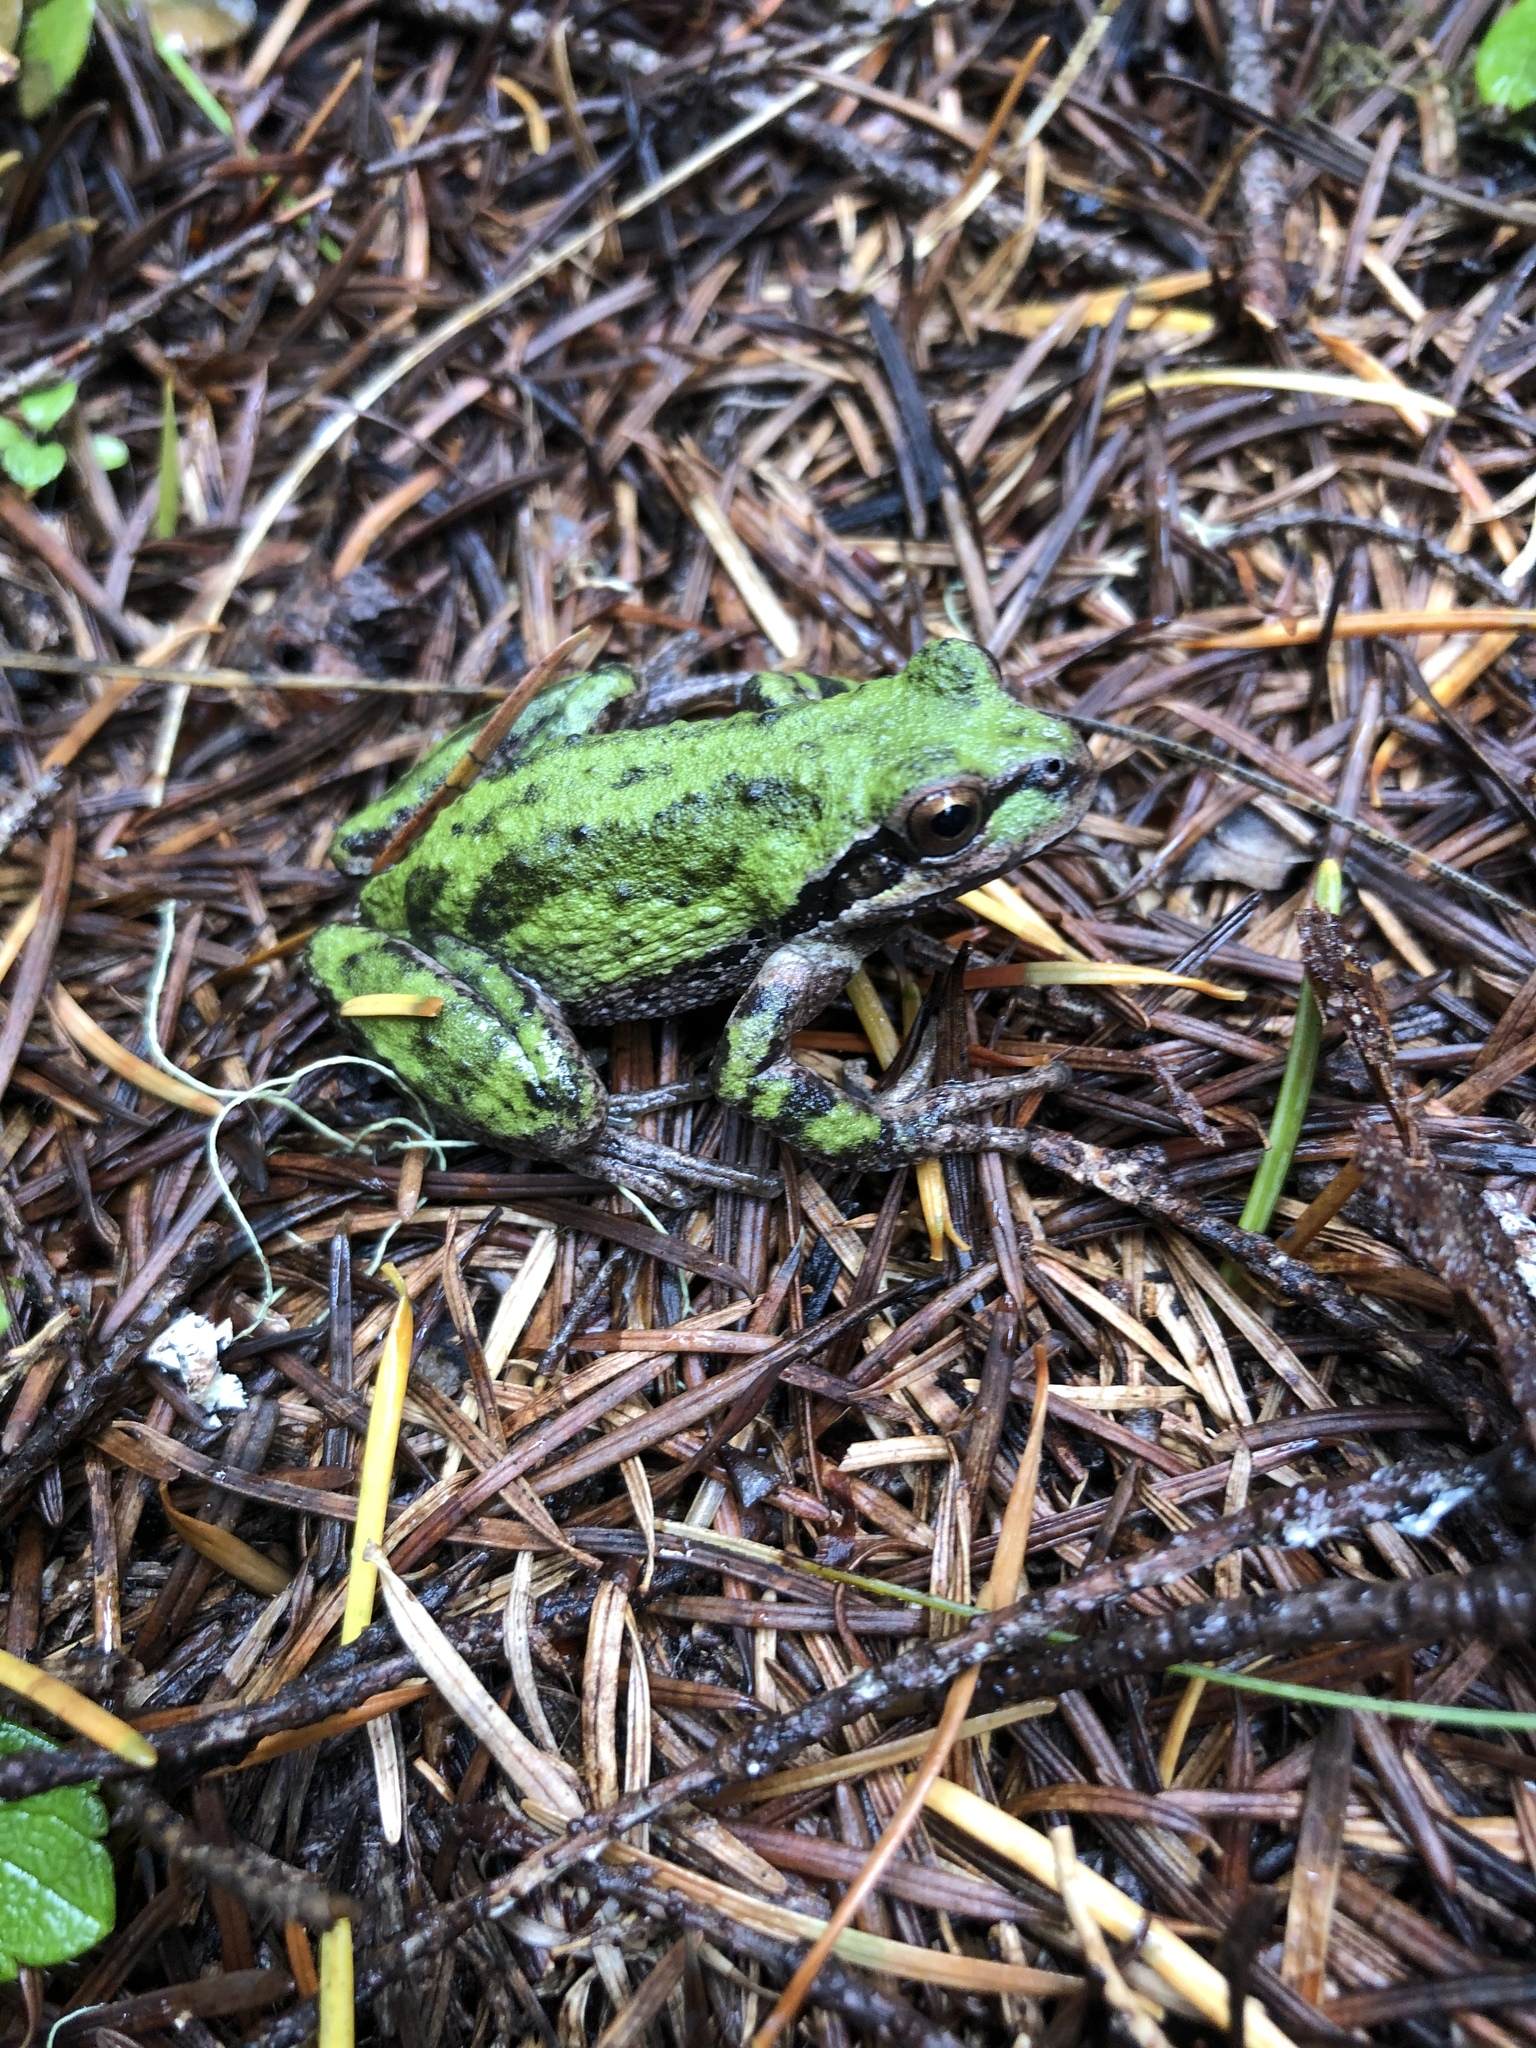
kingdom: Animalia
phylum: Chordata
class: Amphibia
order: Anura
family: Hylidae
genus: Pseudacris
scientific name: Pseudacris regilla
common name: Pacific chorus frog
